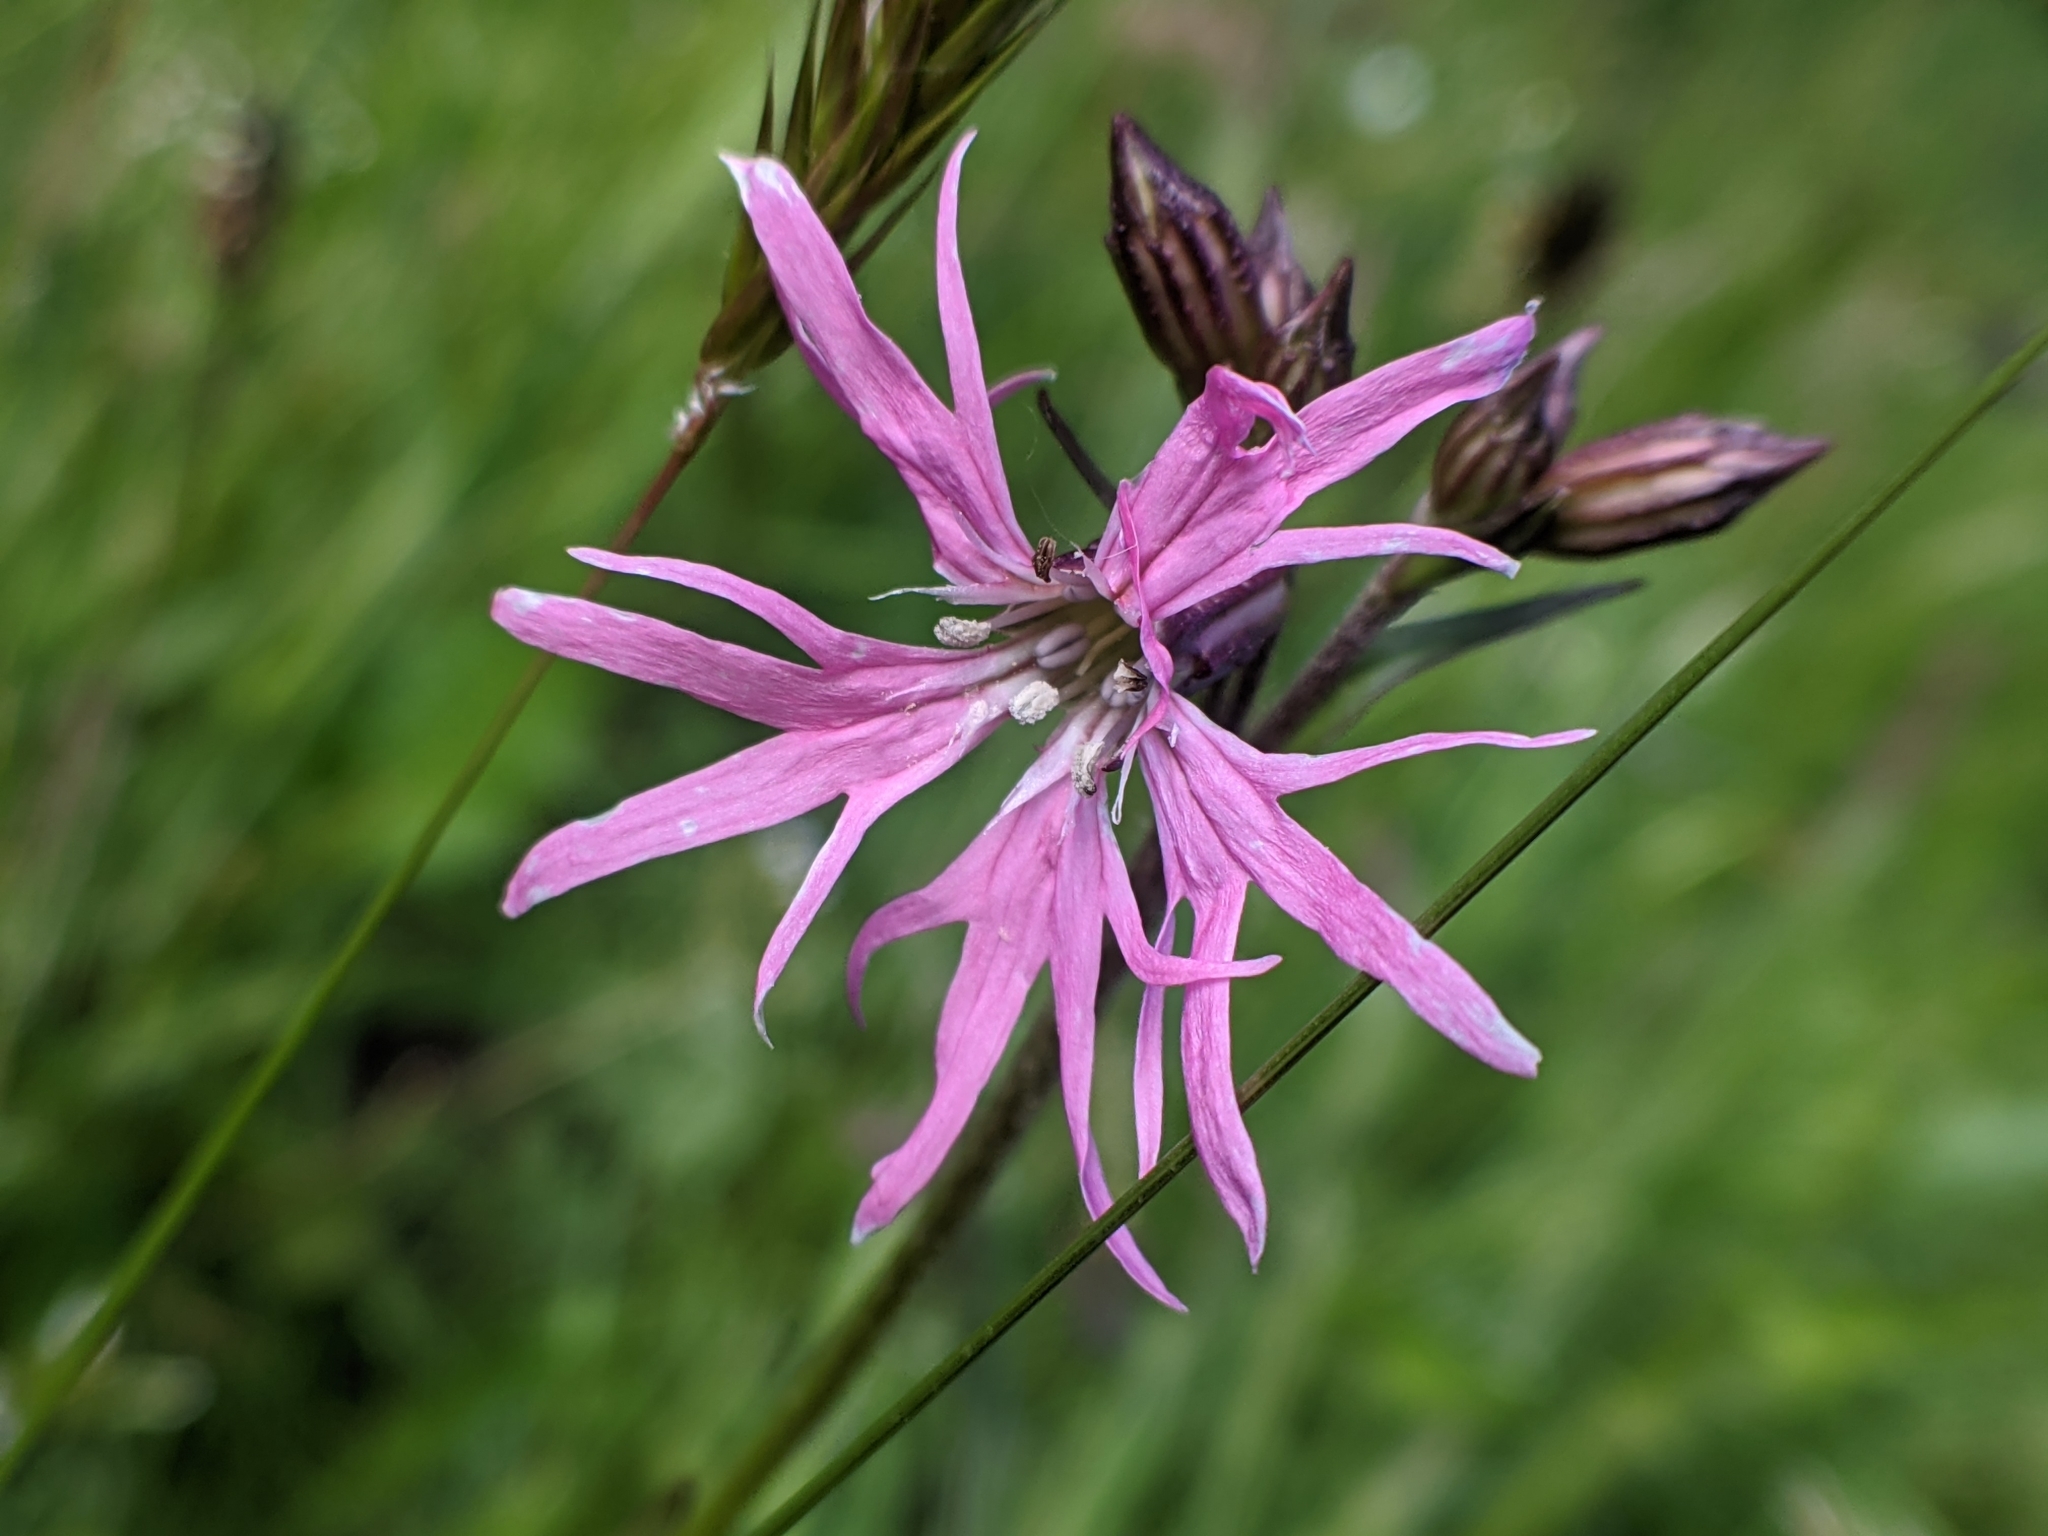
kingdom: Plantae
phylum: Tracheophyta
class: Magnoliopsida
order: Caryophyllales
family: Caryophyllaceae
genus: Silene
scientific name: Silene flos-cuculi
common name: Ragged-robin
